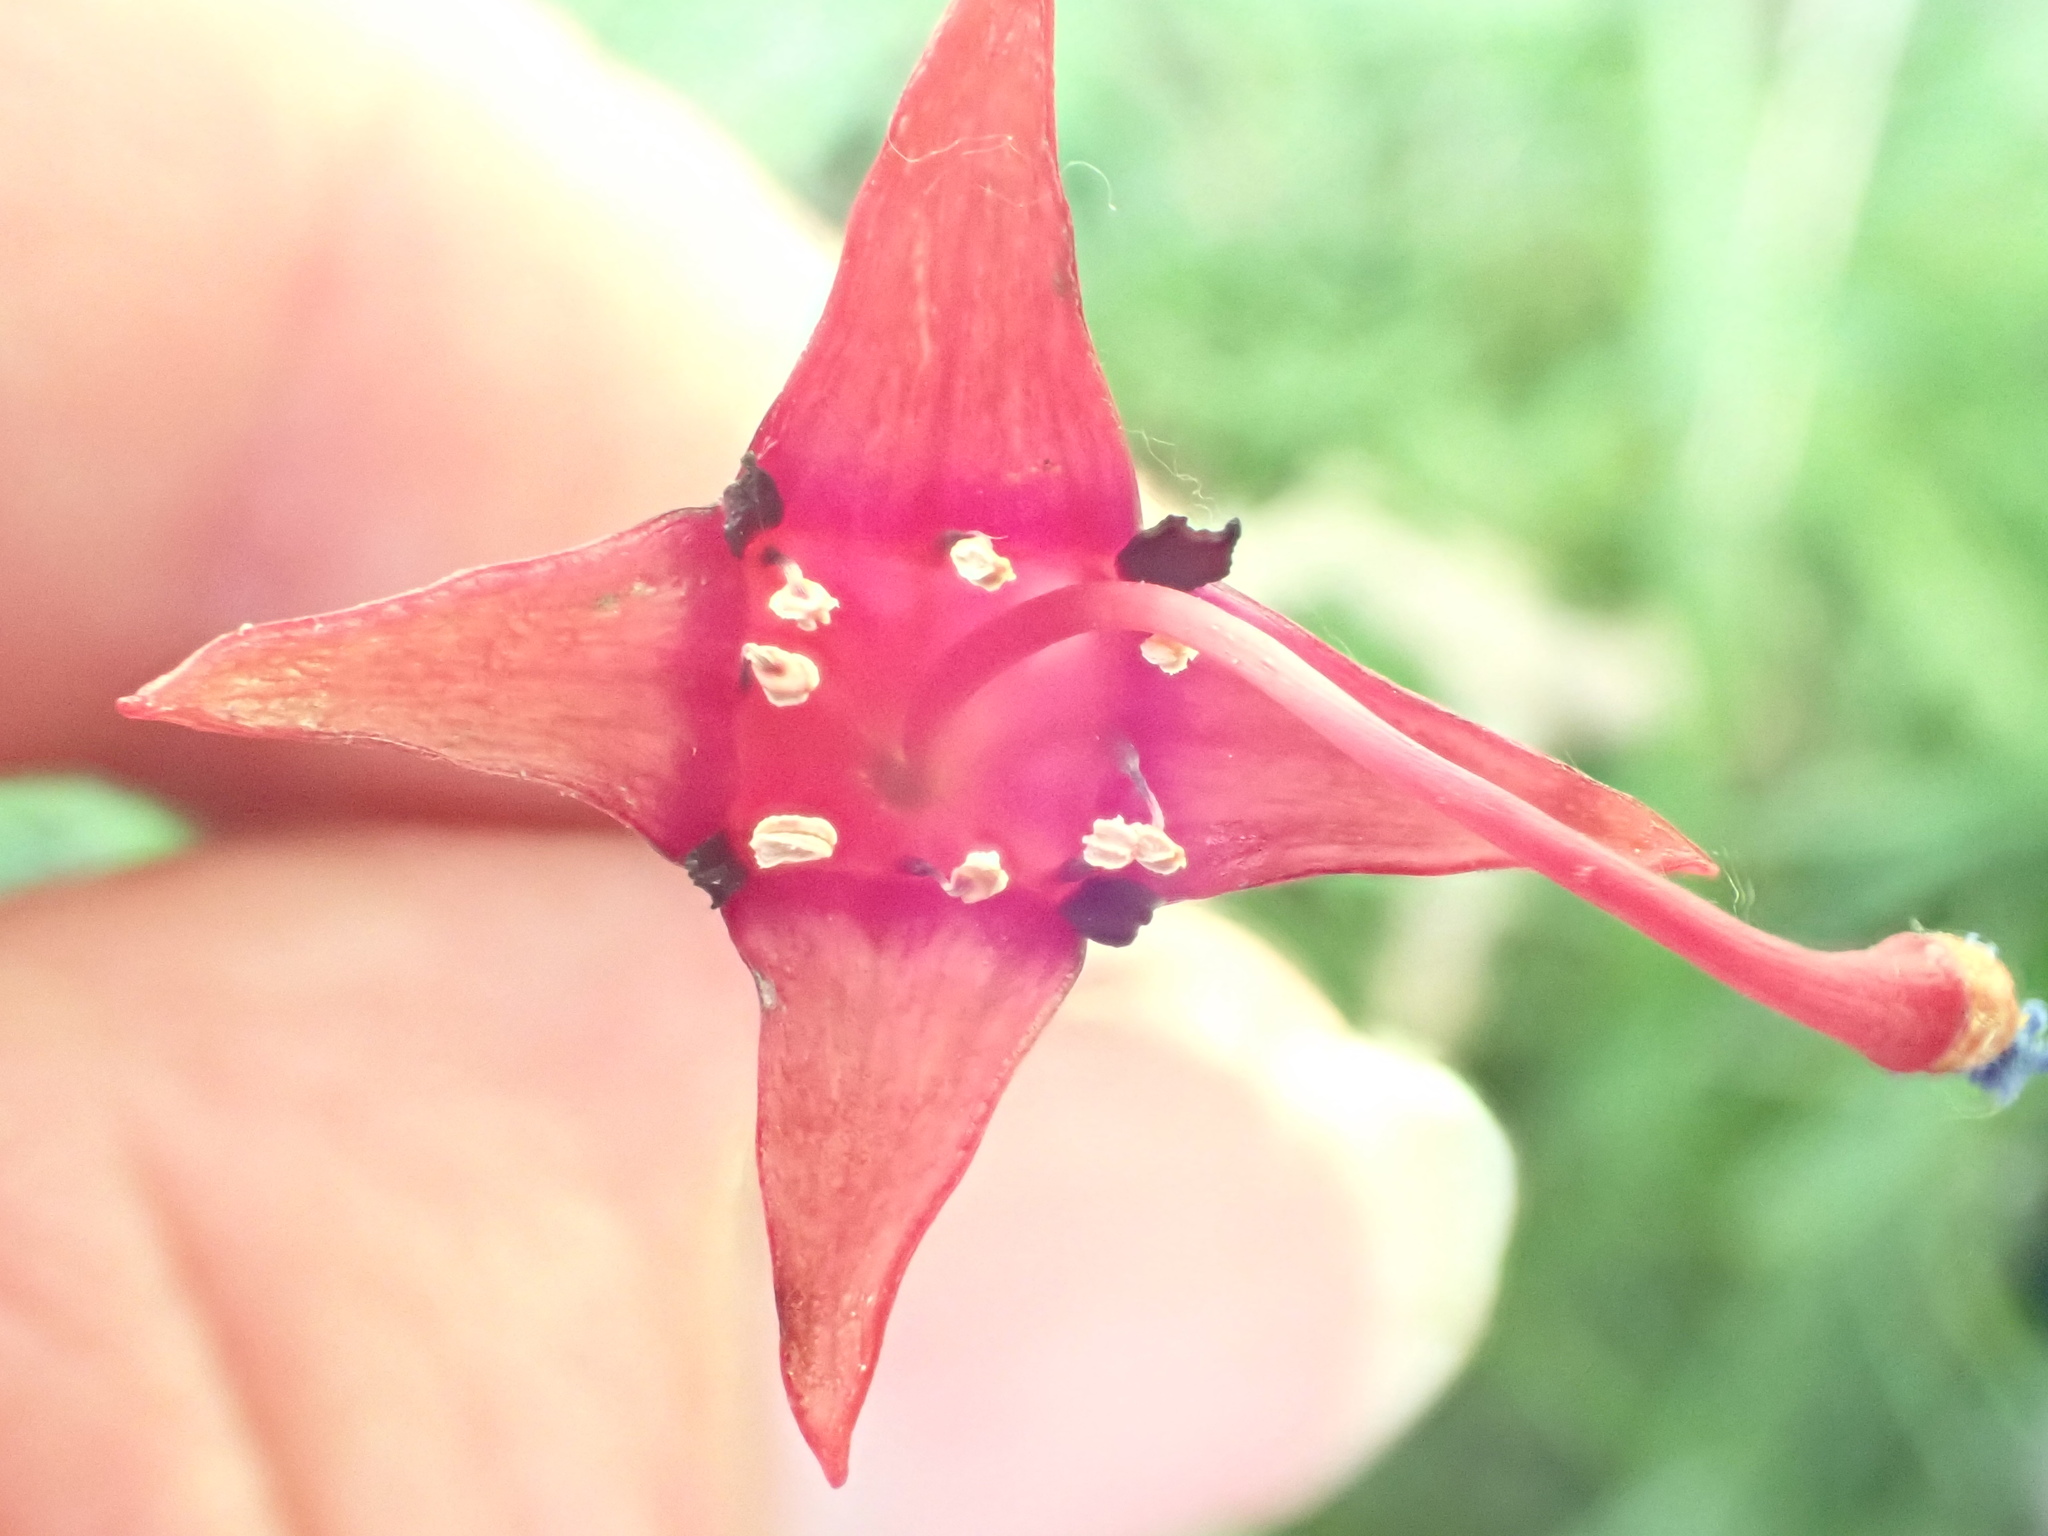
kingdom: Plantae
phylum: Tracheophyta
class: Magnoliopsida
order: Myrtales
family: Onagraceae
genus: Fuchsia
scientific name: Fuchsia excorticata
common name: Tree fuchsia
